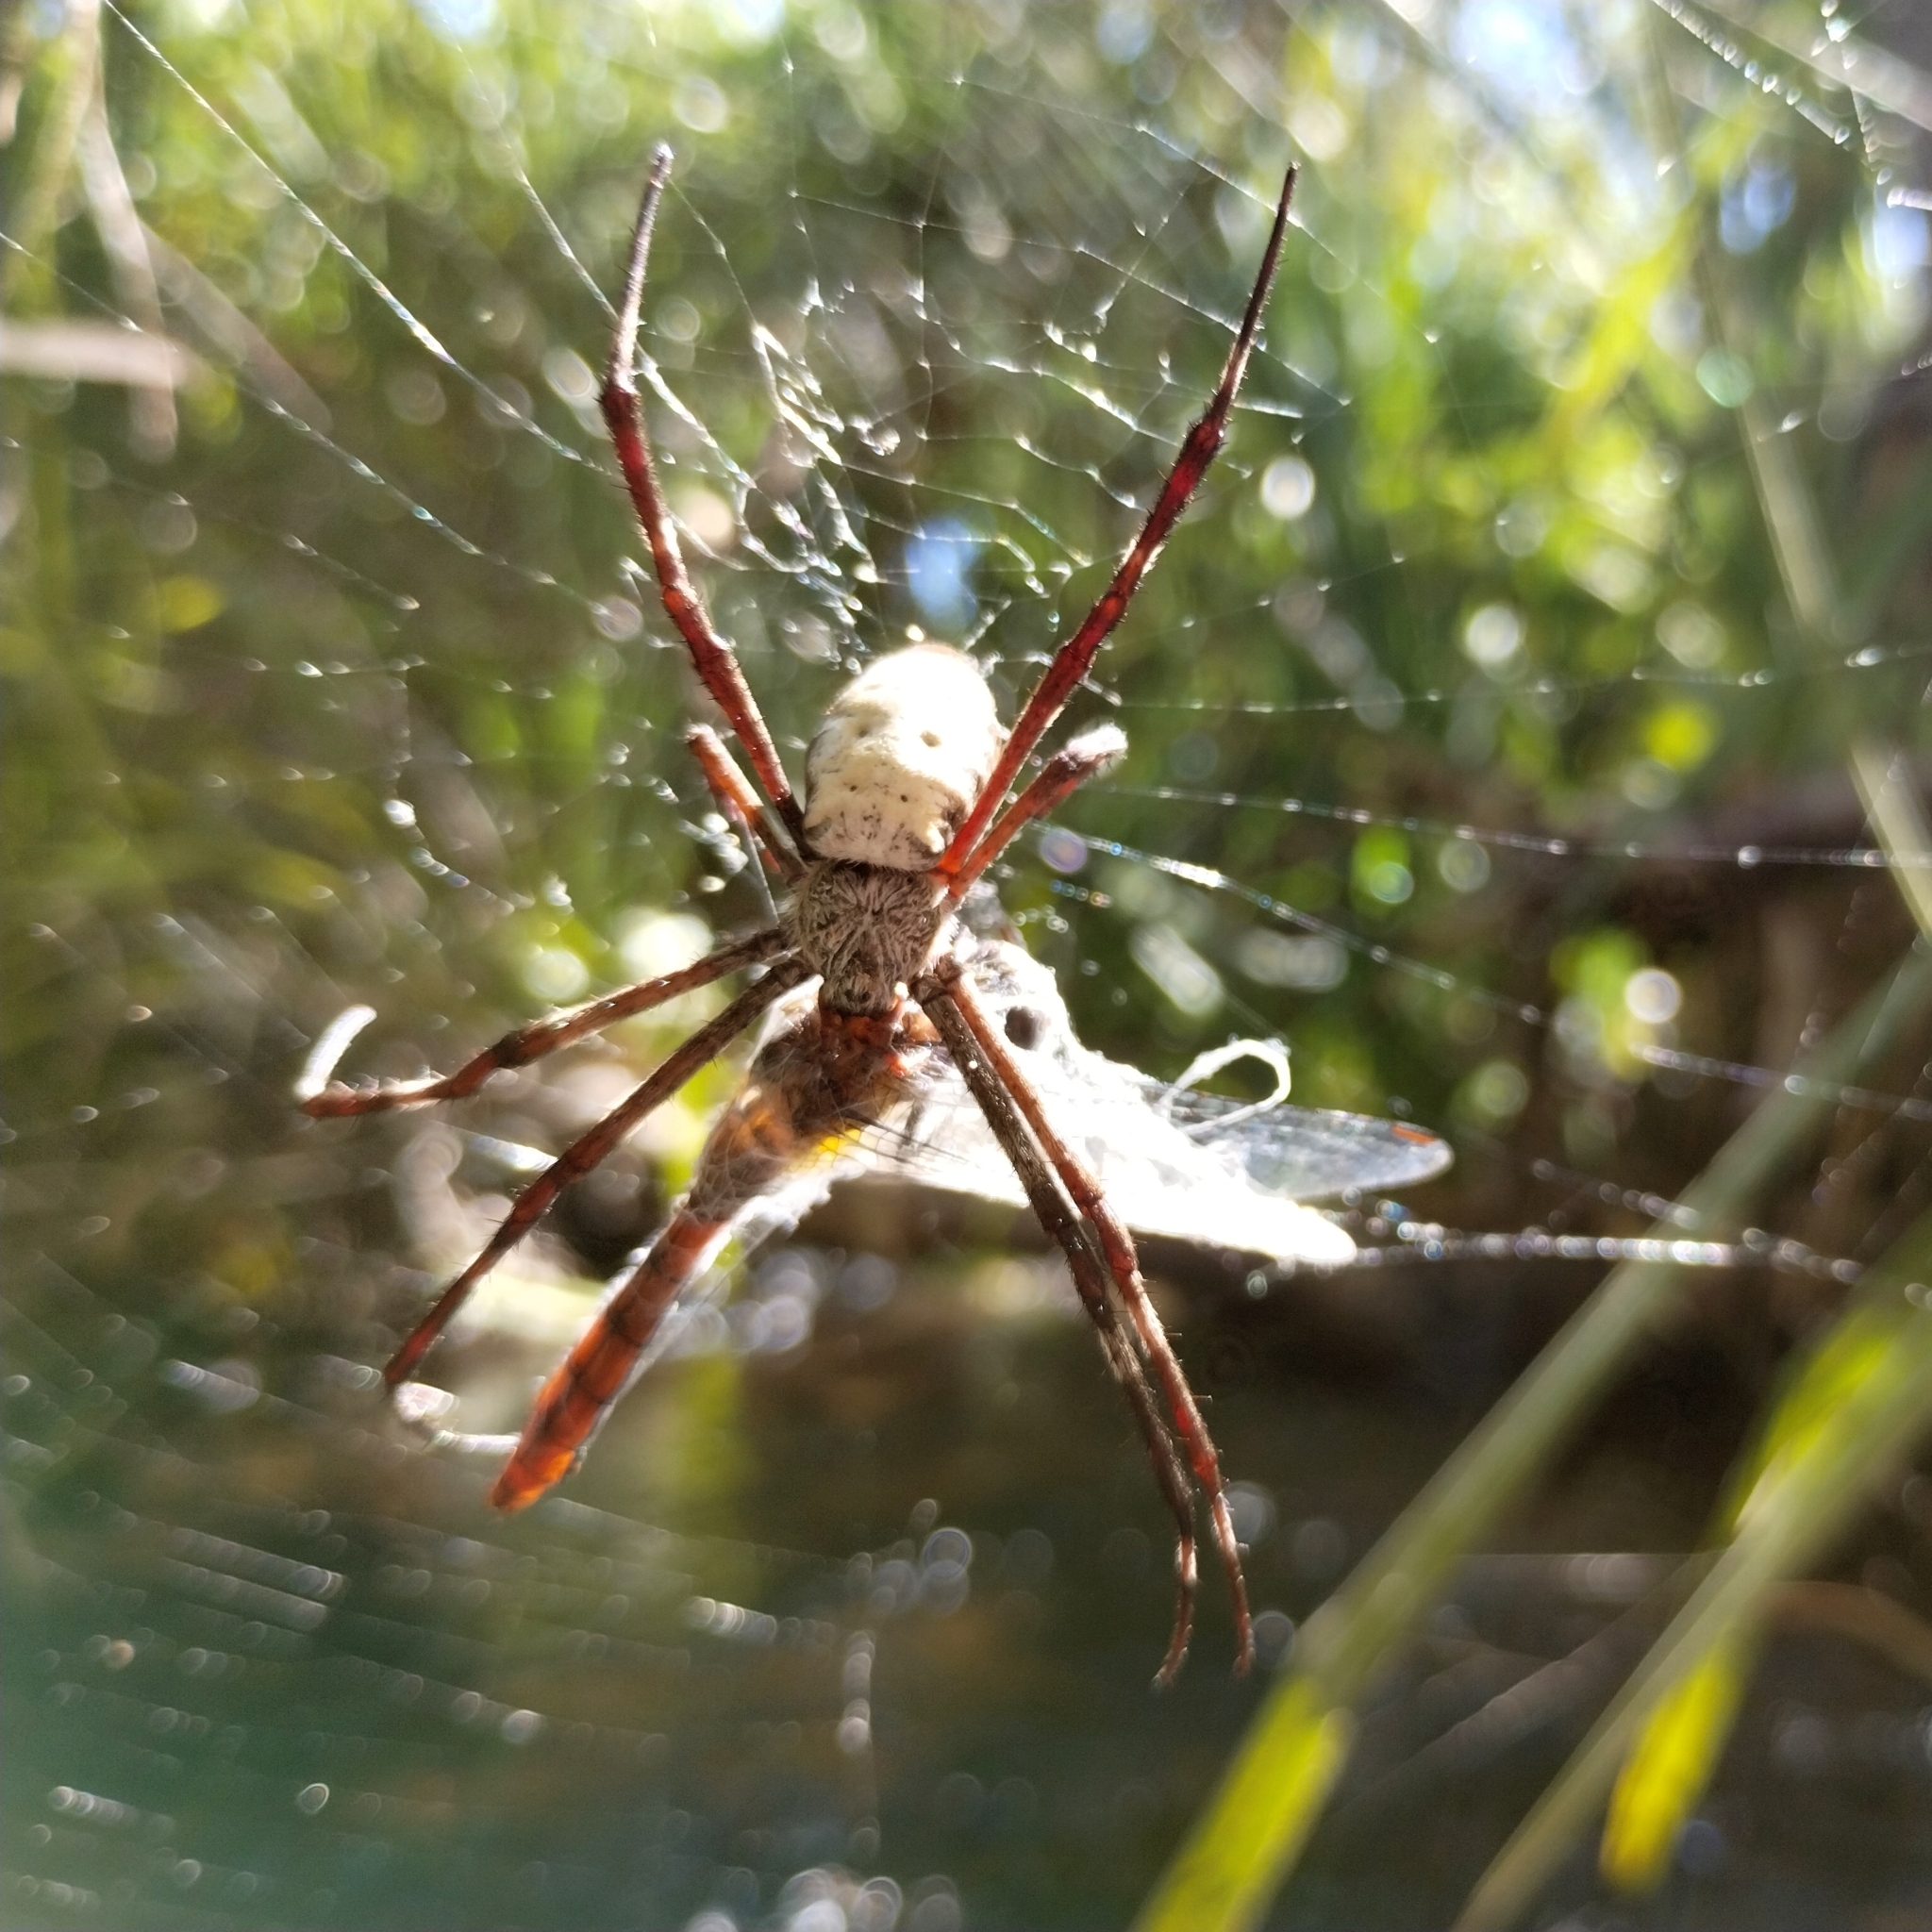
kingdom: Animalia
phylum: Arthropoda
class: Arachnida
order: Araneae
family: Araneidae
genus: Argiope
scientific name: Argiope radon
